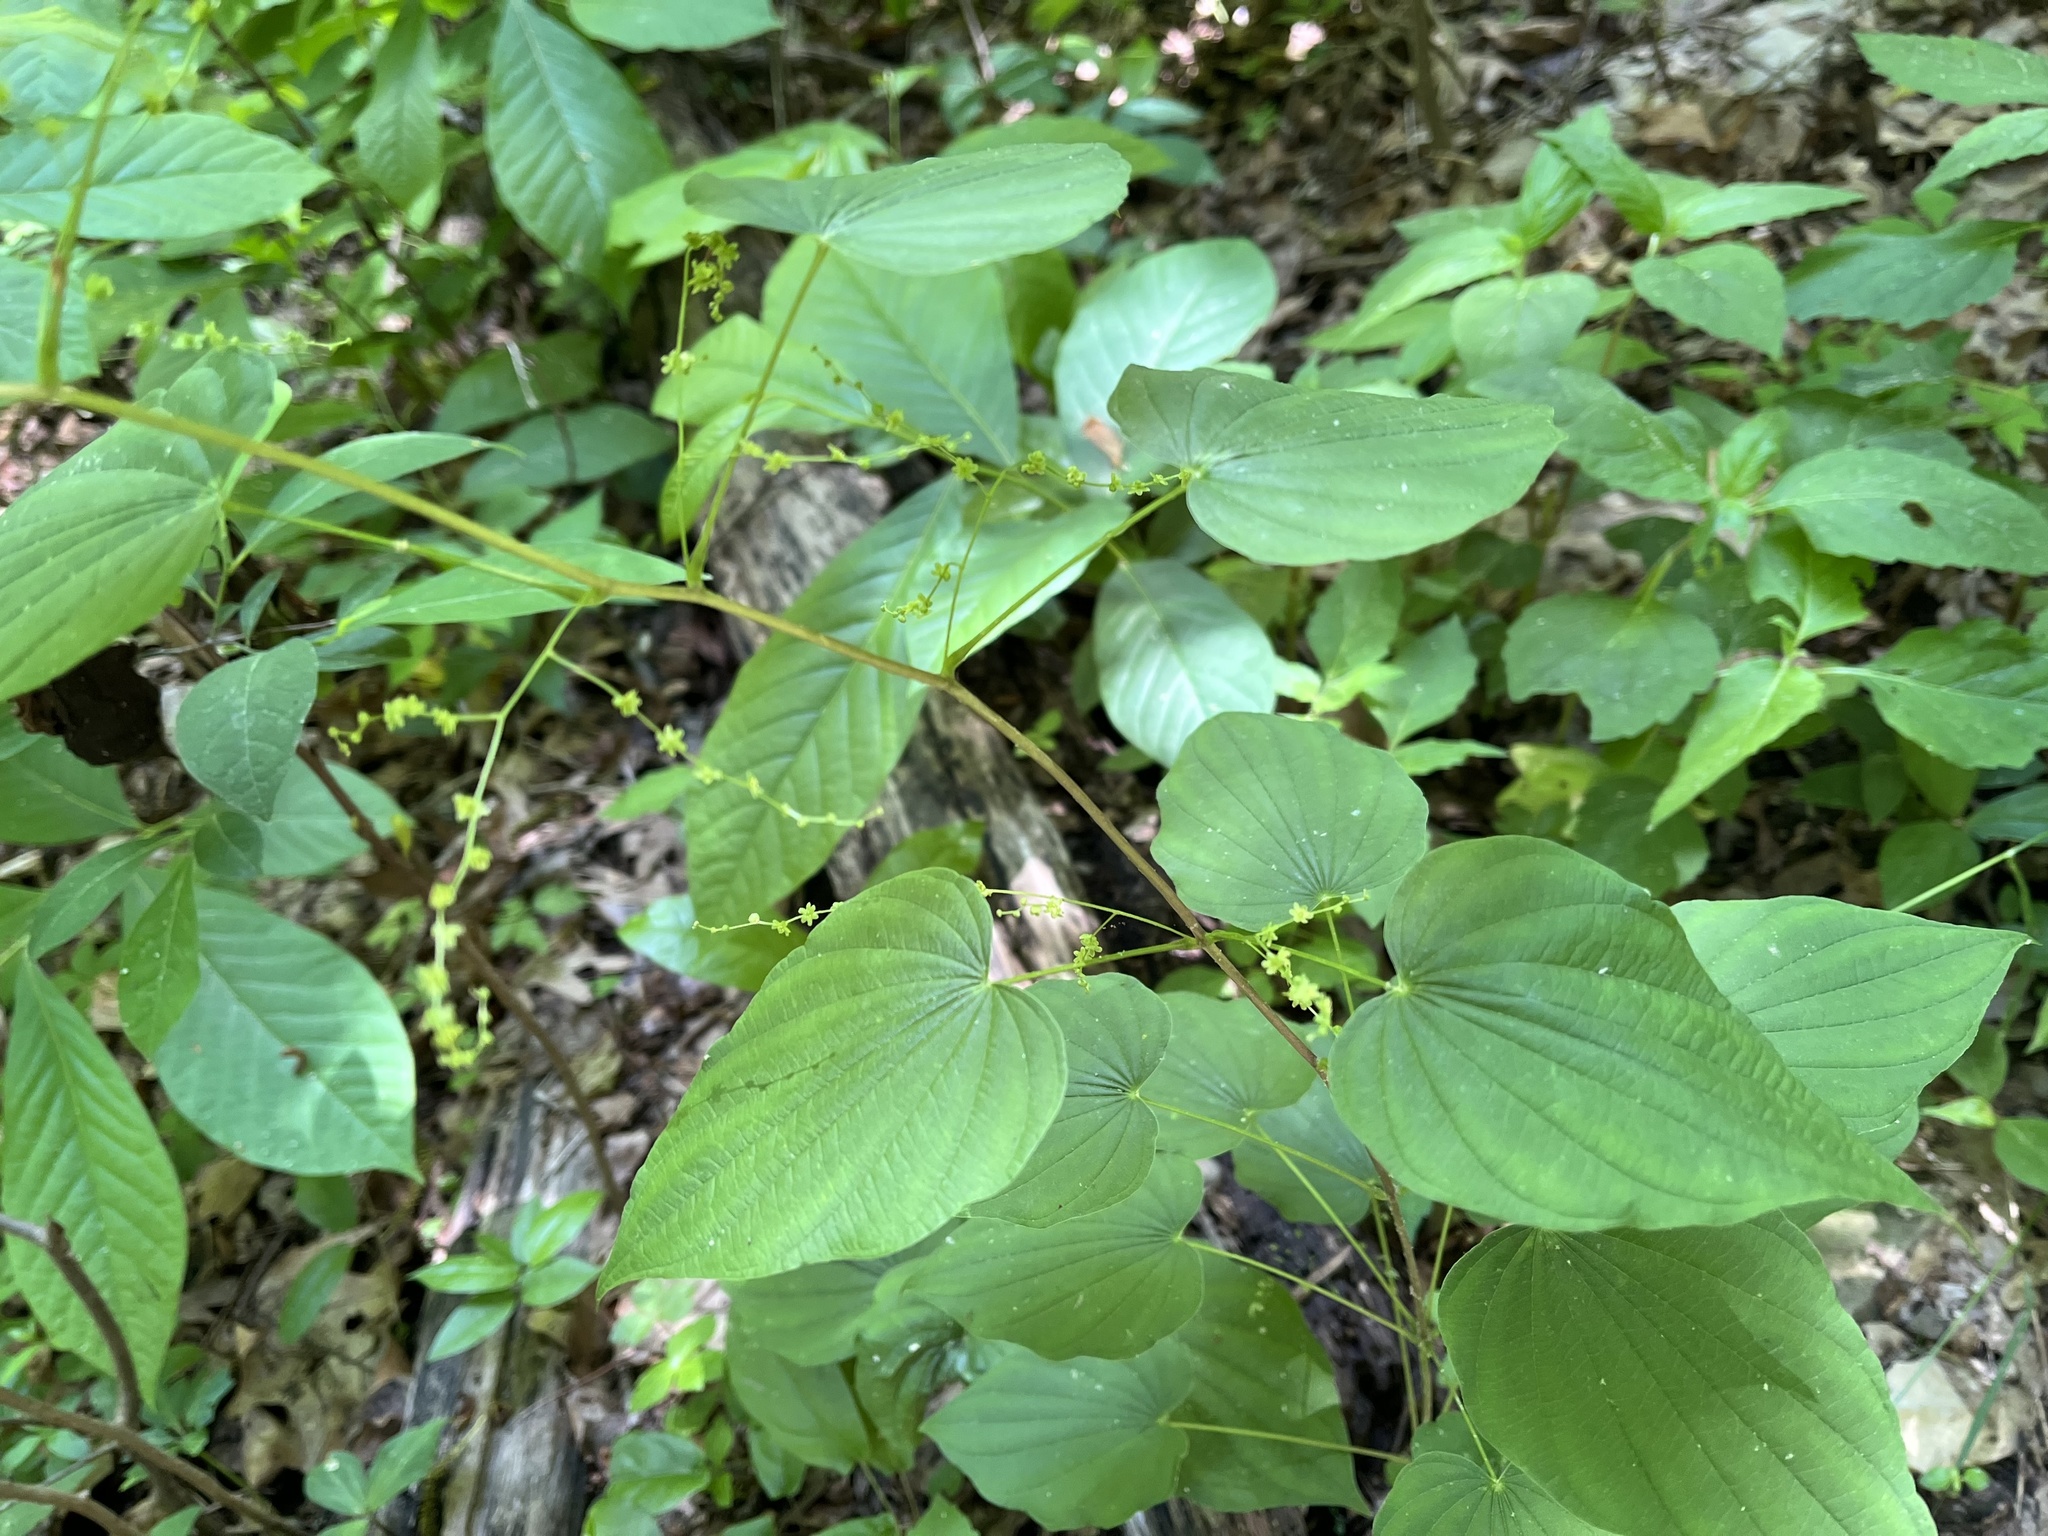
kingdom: Plantae
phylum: Tracheophyta
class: Liliopsida
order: Dioscoreales
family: Dioscoreaceae
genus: Dioscorea
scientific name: Dioscorea villosa
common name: Wild yam
